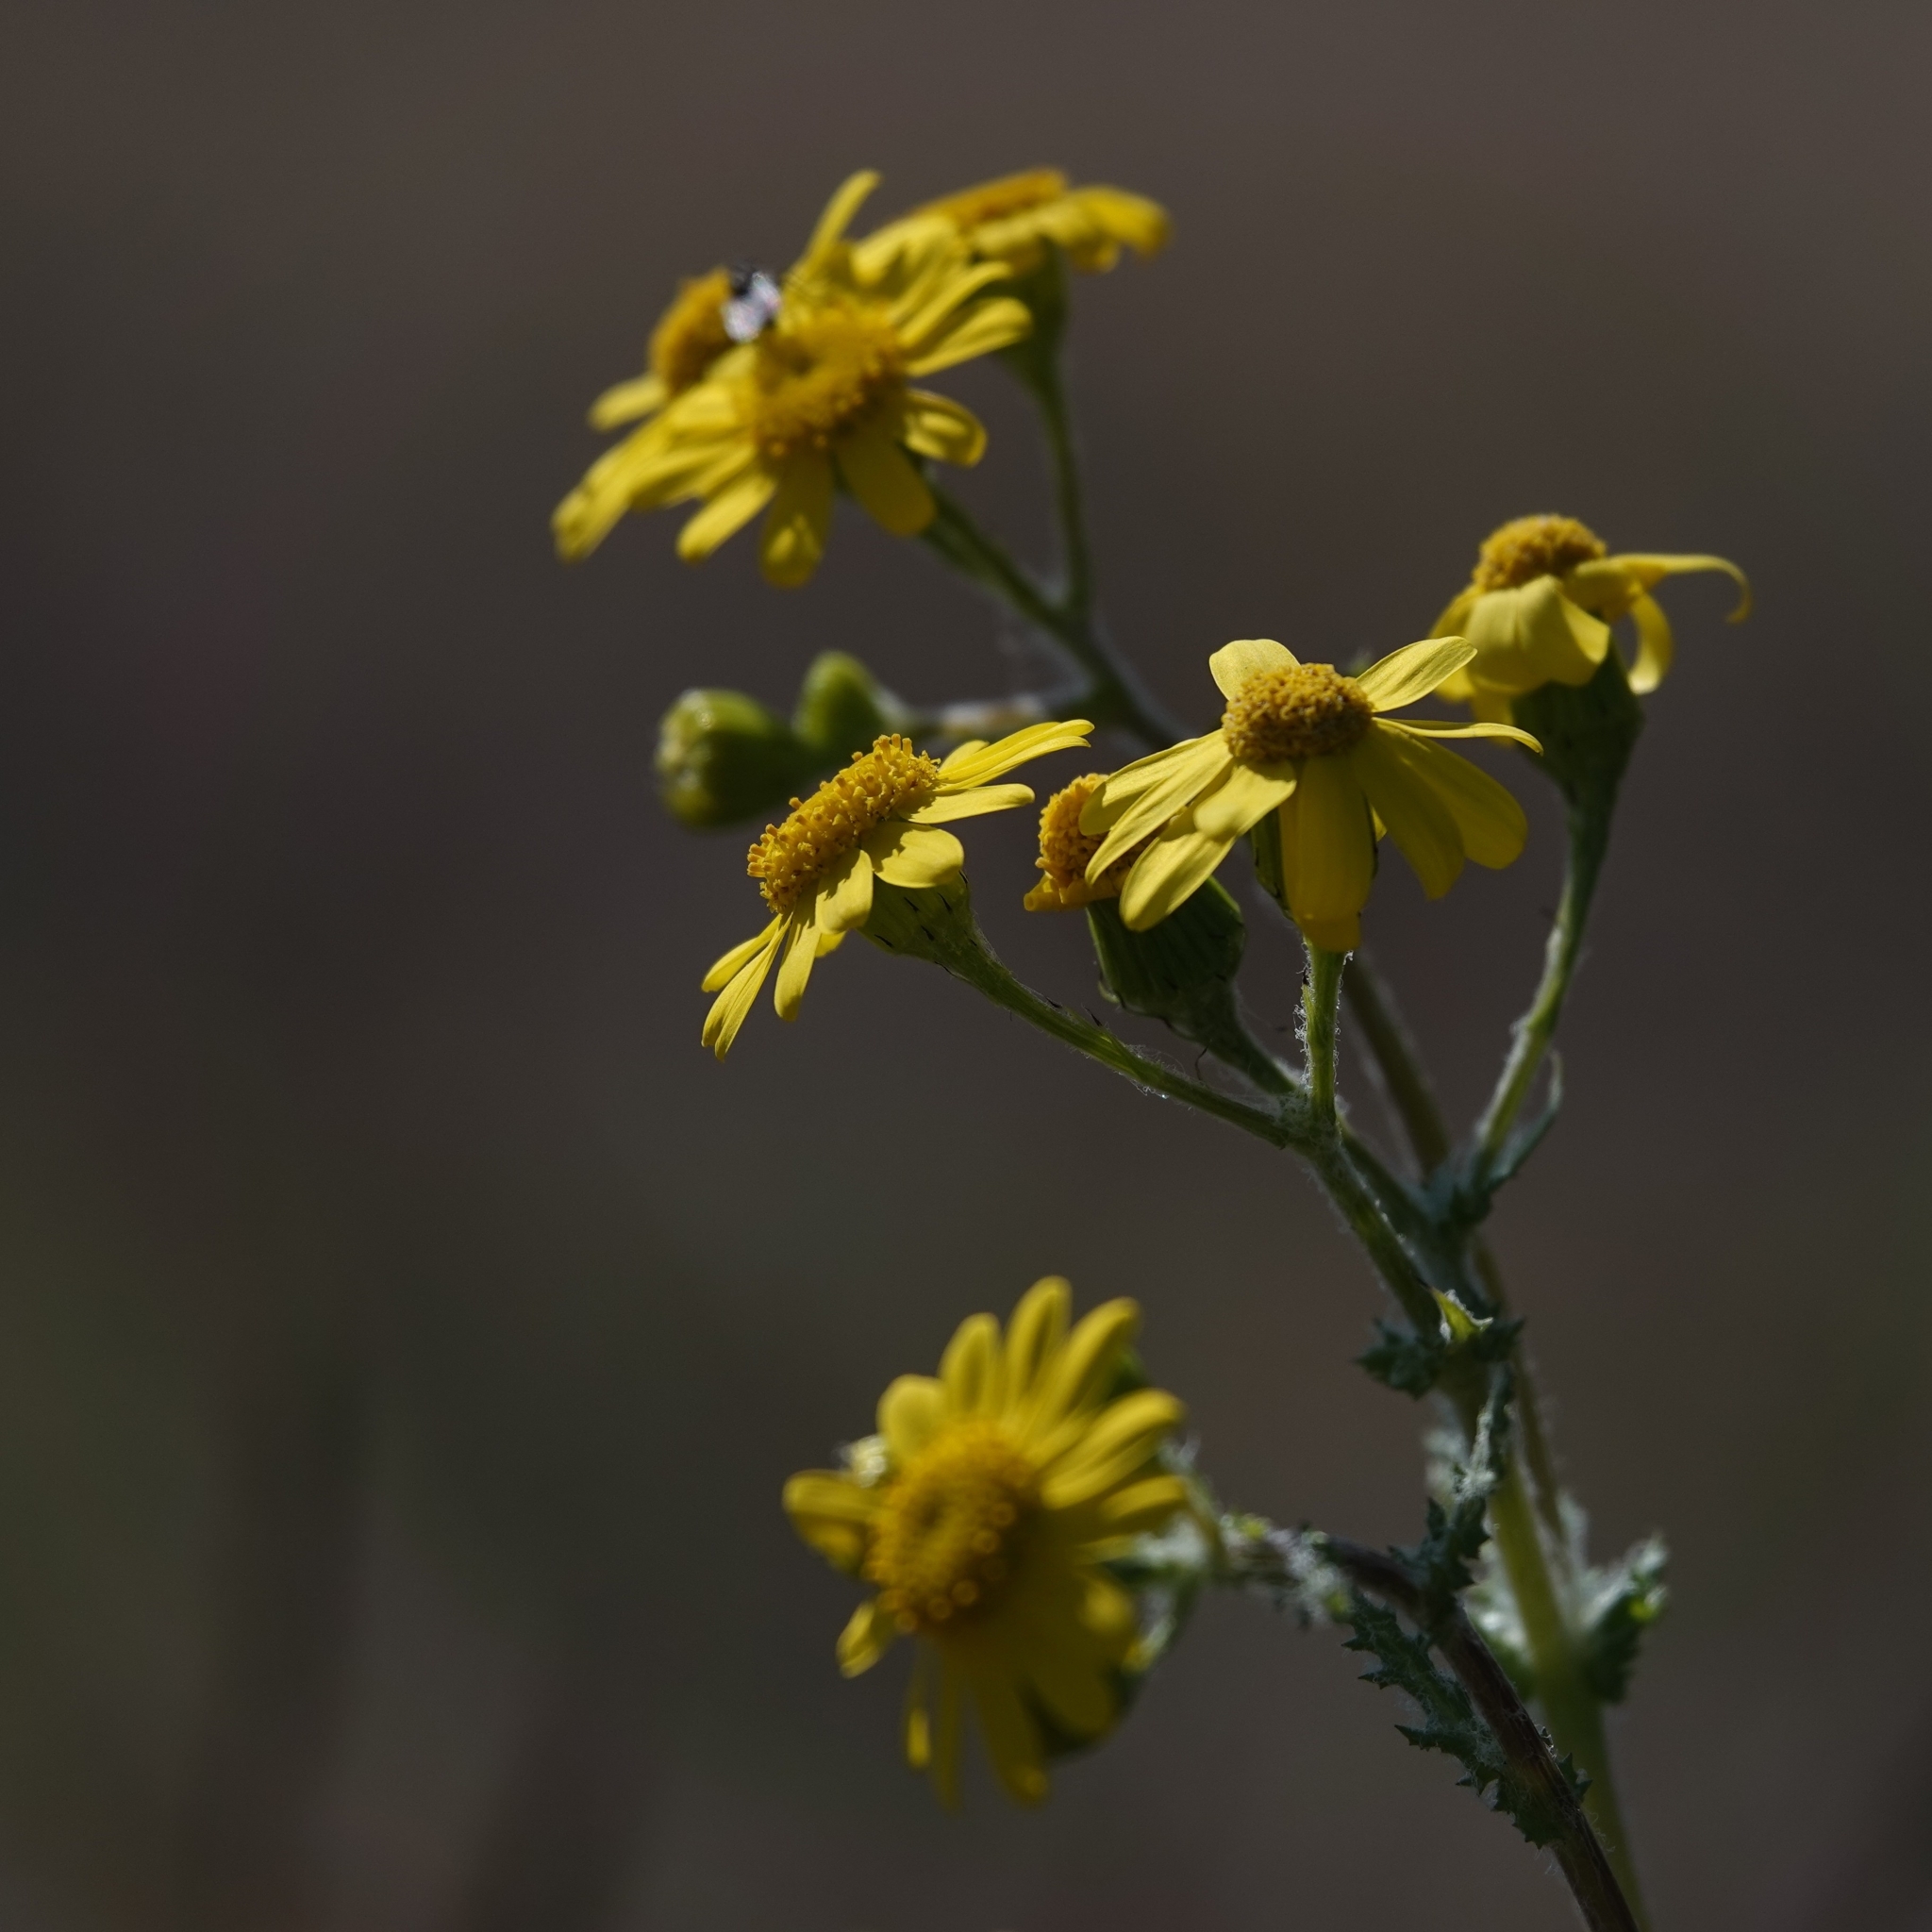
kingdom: Plantae
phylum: Tracheophyta
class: Magnoliopsida
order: Asterales
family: Asteraceae
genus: Senecio
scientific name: Senecio vernalis
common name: Eastern groundsel
